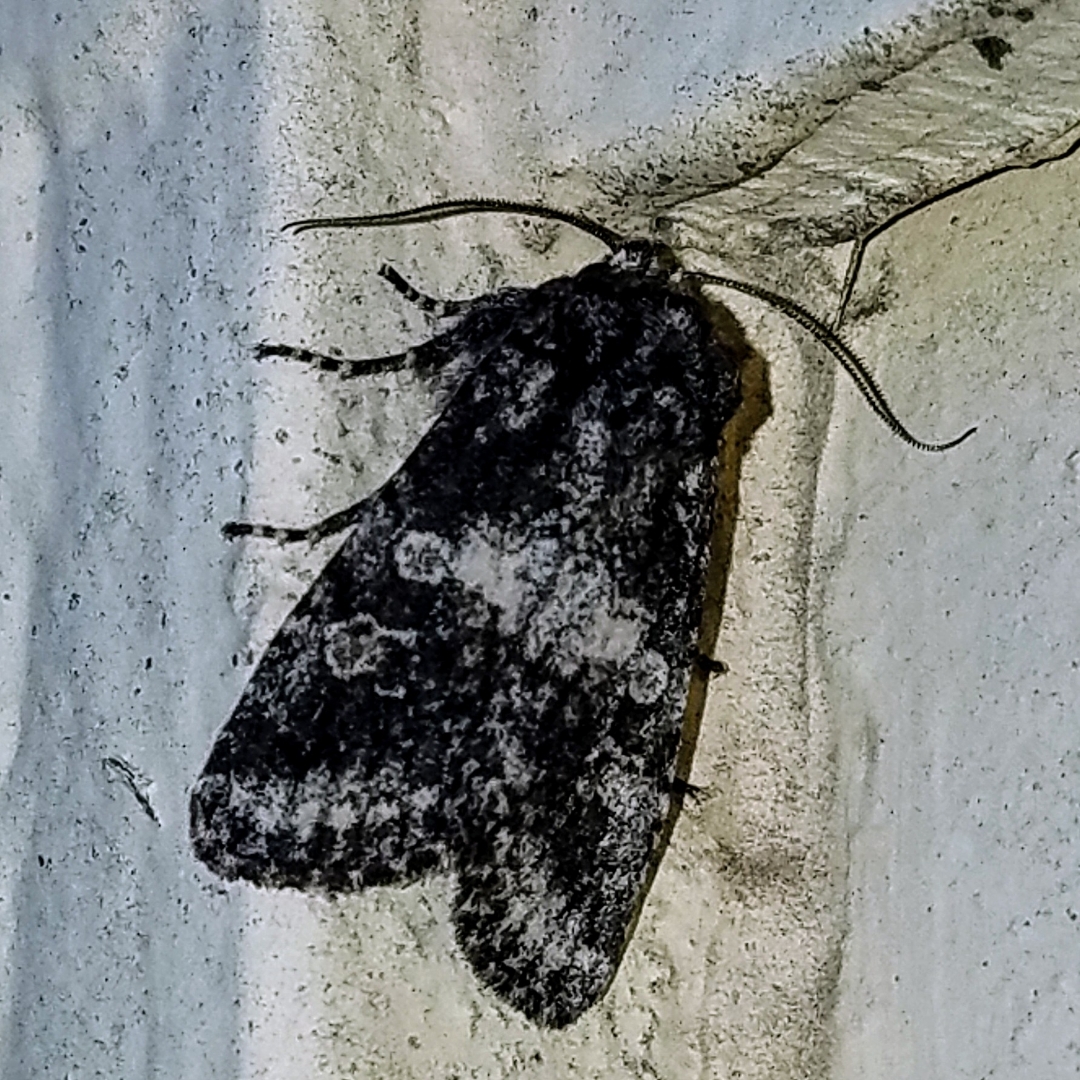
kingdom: Animalia
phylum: Arthropoda
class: Insecta
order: Lepidoptera
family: Noctuidae
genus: Egira
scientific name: Egira dolosa
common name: Lined black aspen cat.
